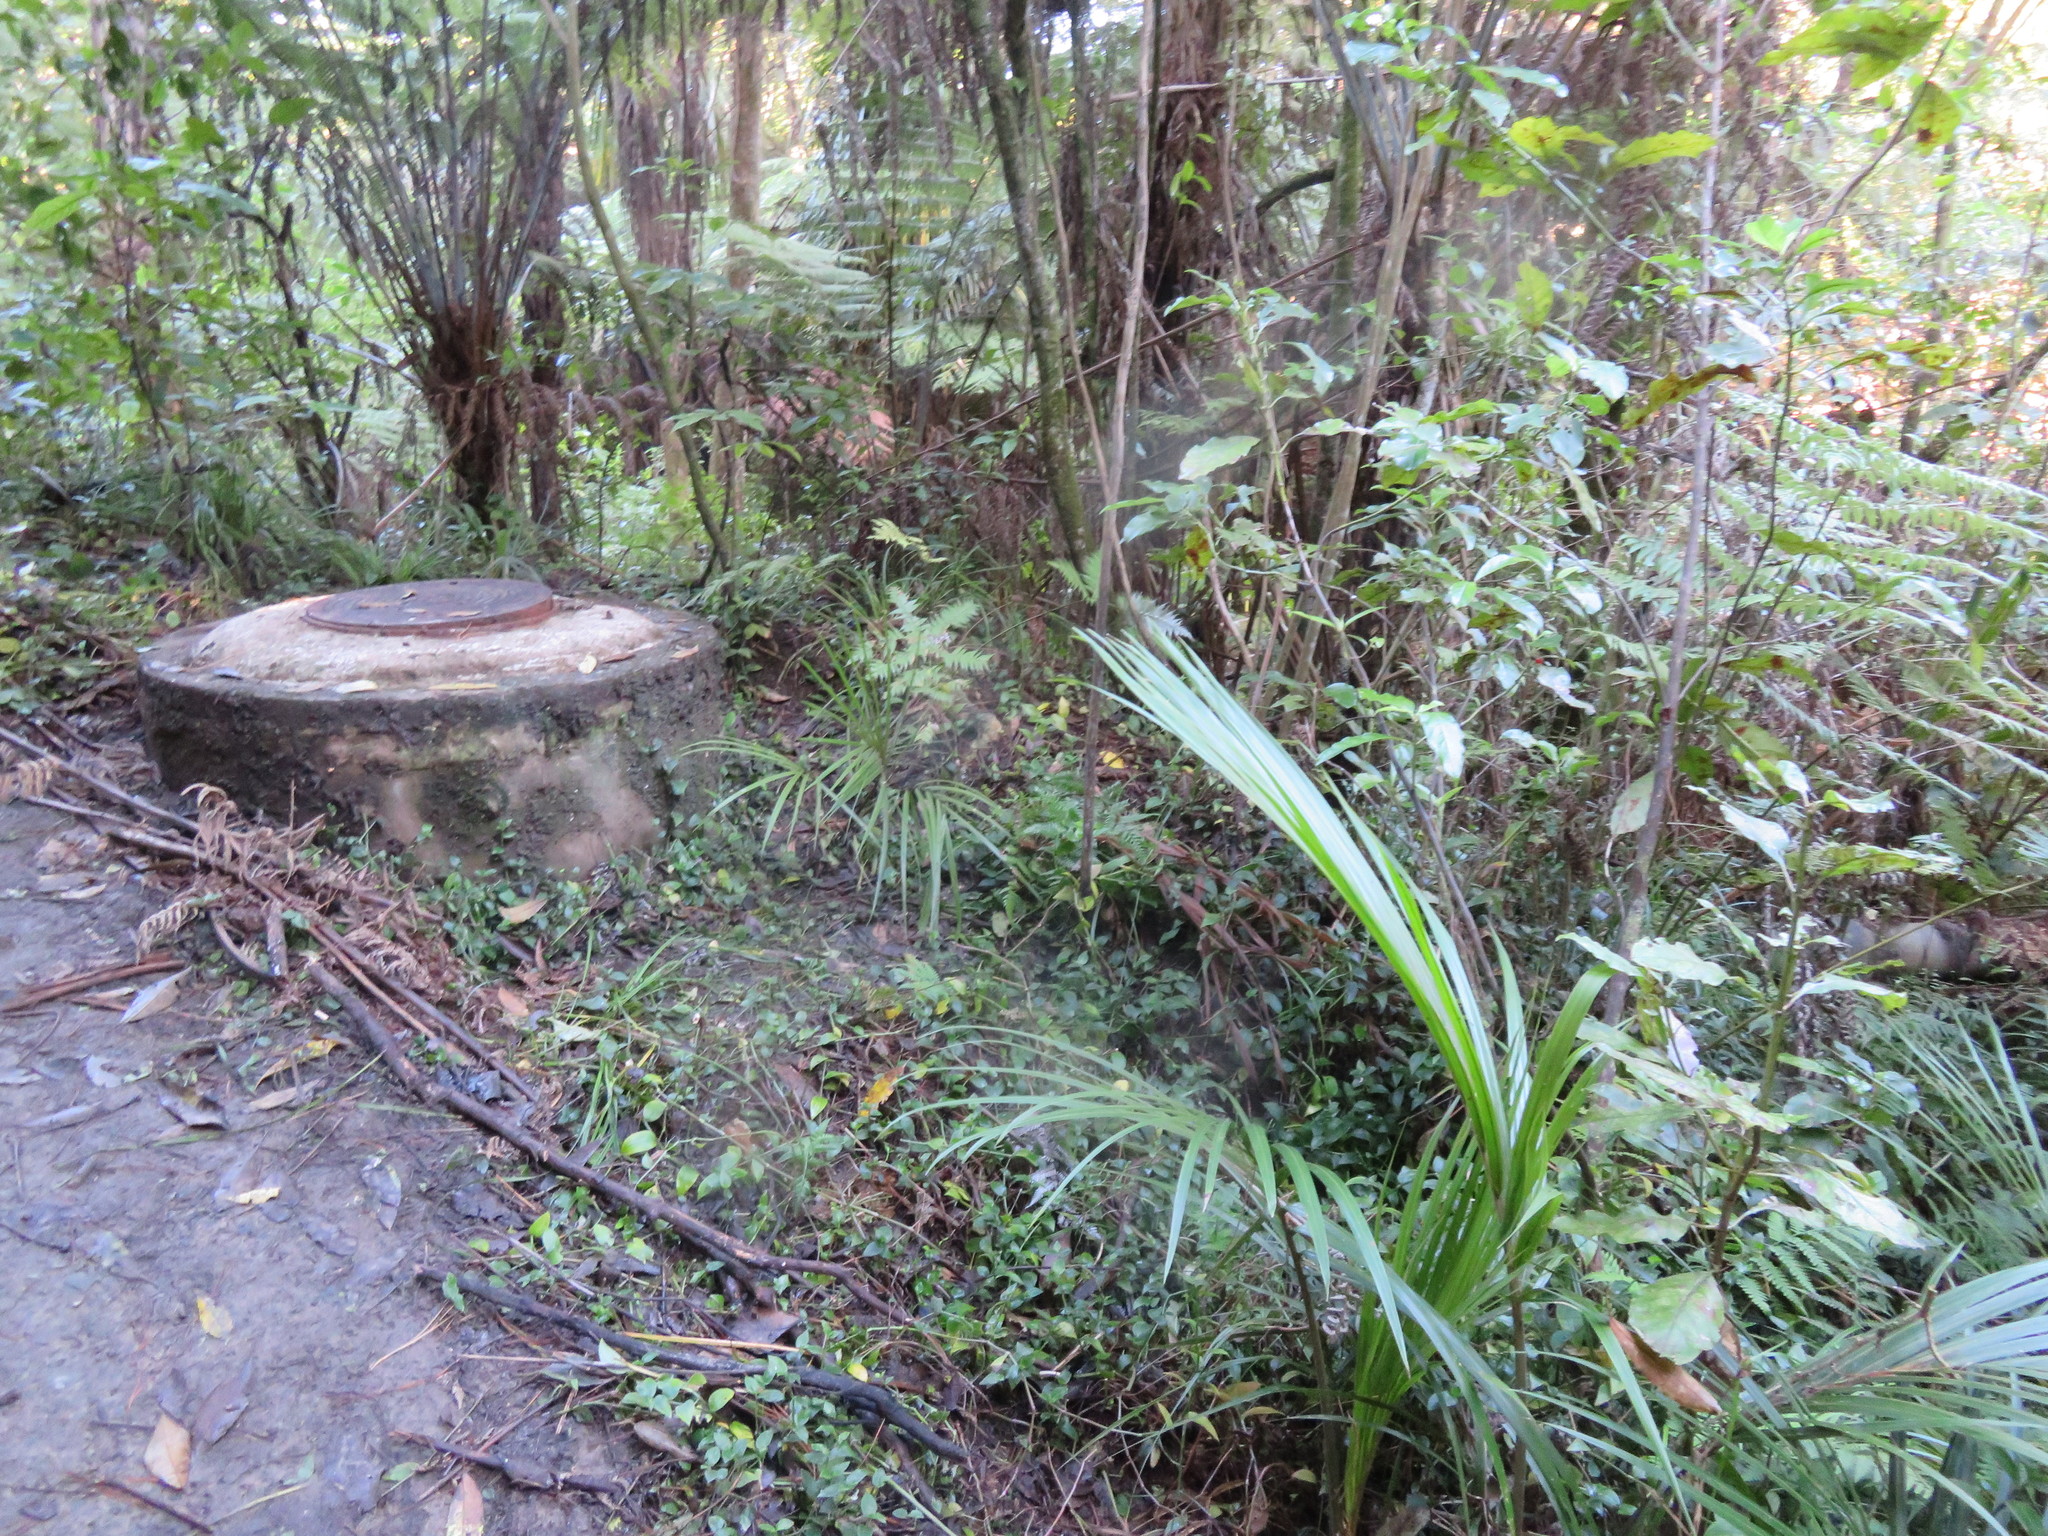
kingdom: Plantae
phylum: Tracheophyta
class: Liliopsida
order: Commelinales
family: Commelinaceae
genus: Tradescantia
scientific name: Tradescantia fluminensis
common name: Wandering-jew
